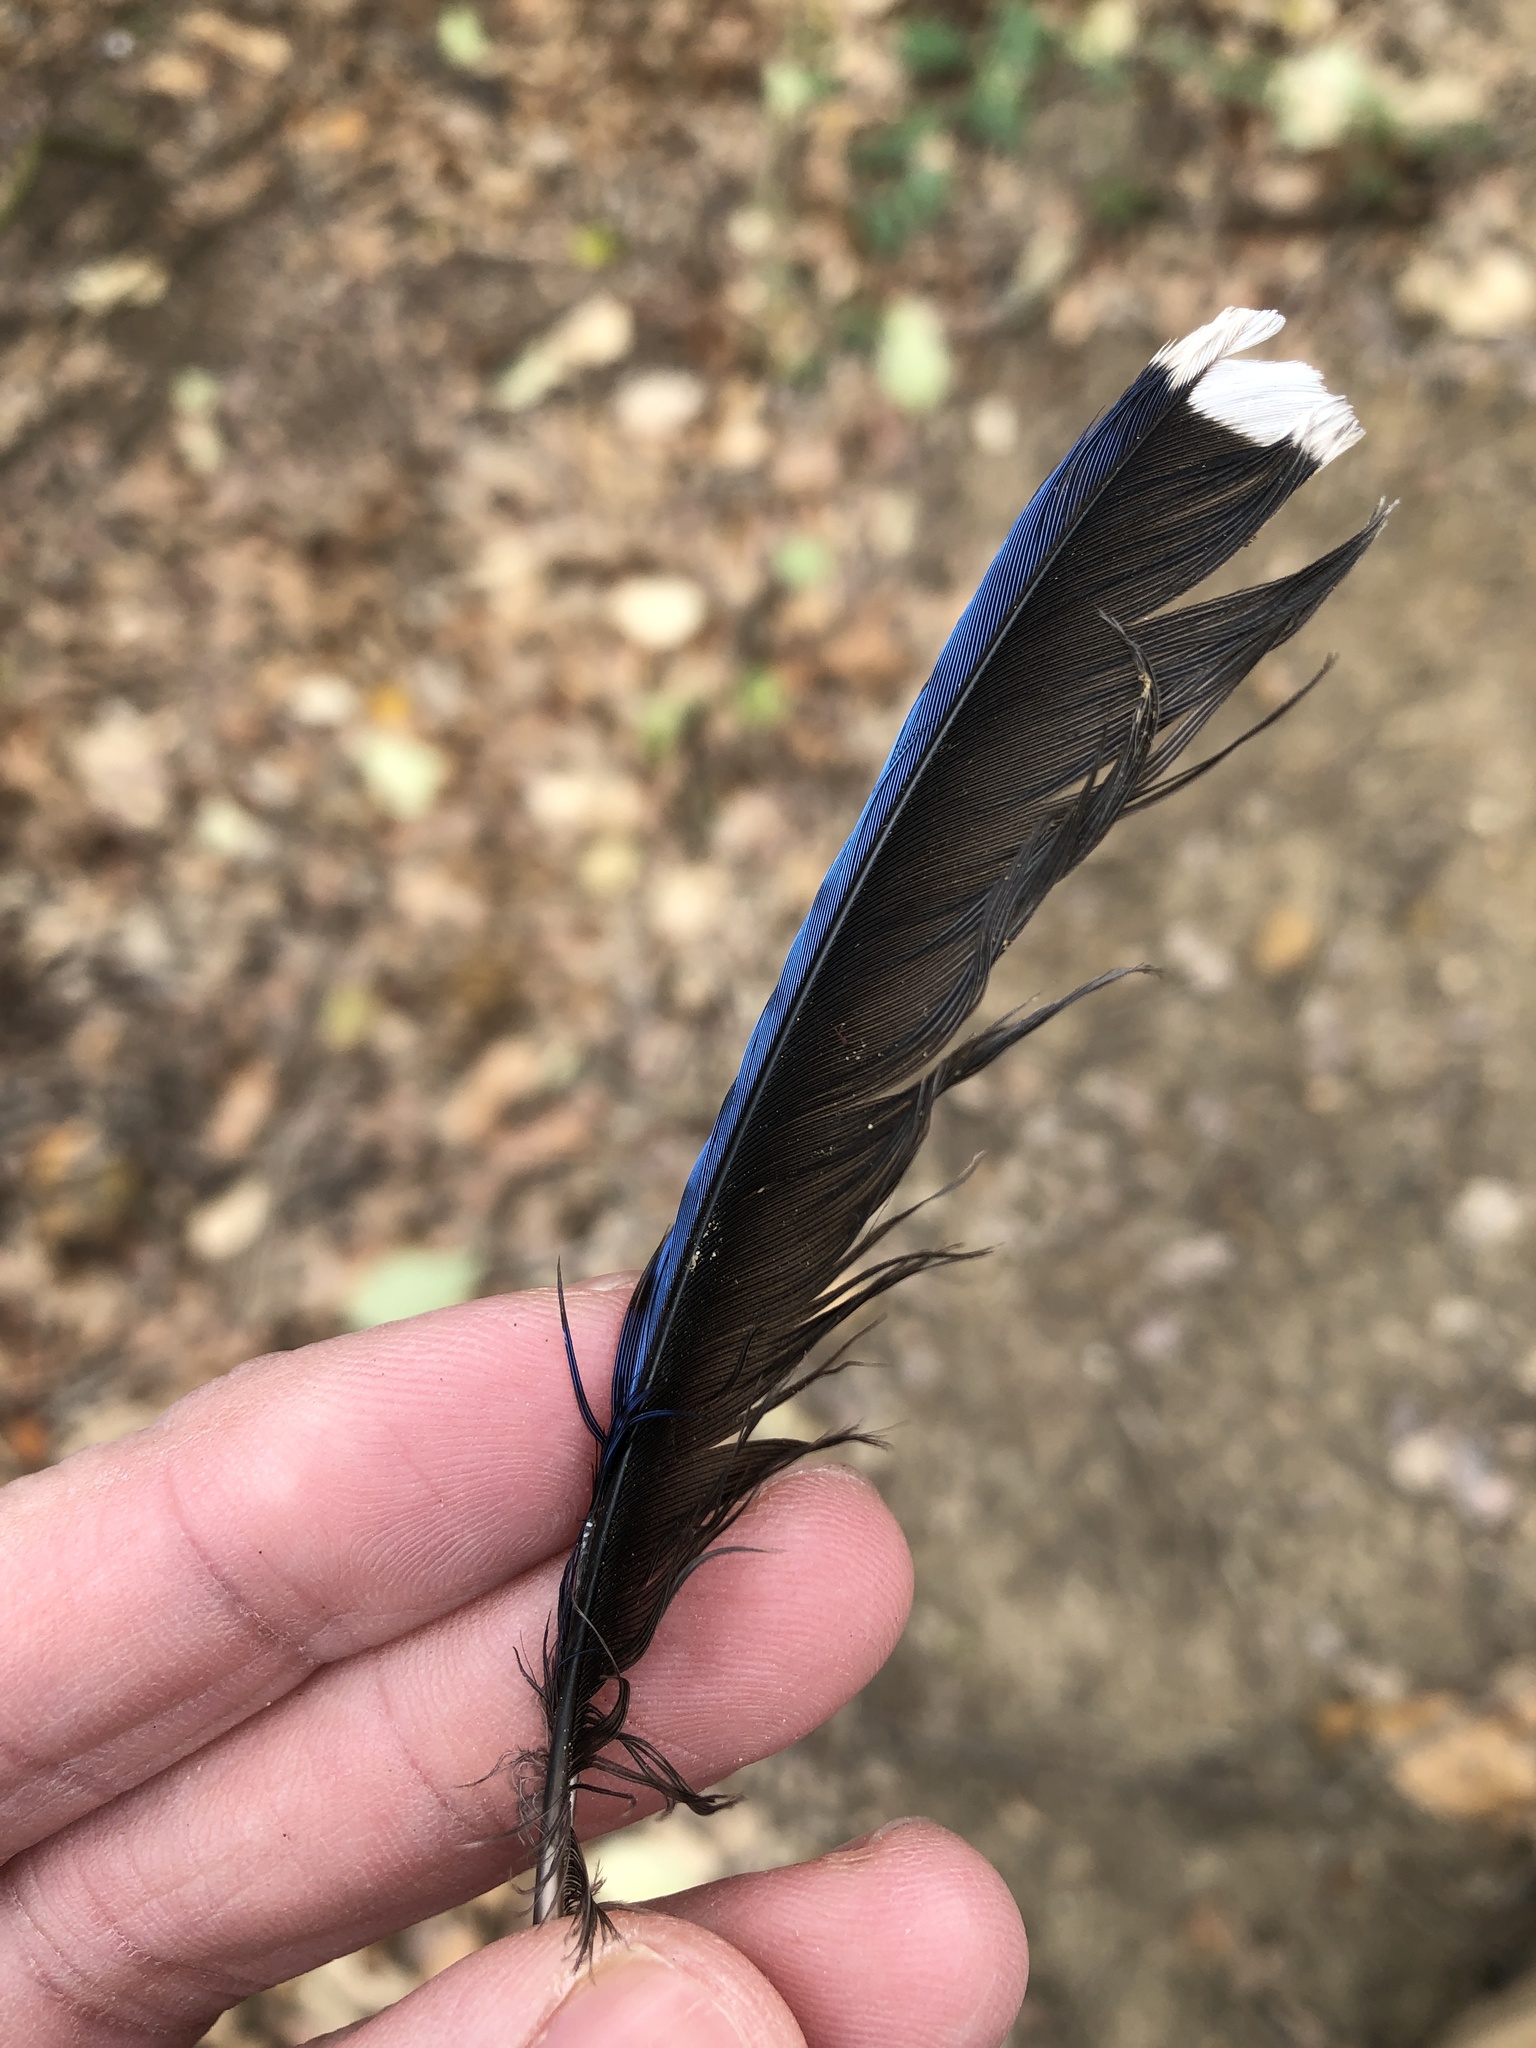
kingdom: Animalia
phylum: Chordata
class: Aves
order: Passeriformes
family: Corvidae
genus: Cyanocitta
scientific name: Cyanocitta cristata
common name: Blue jay
